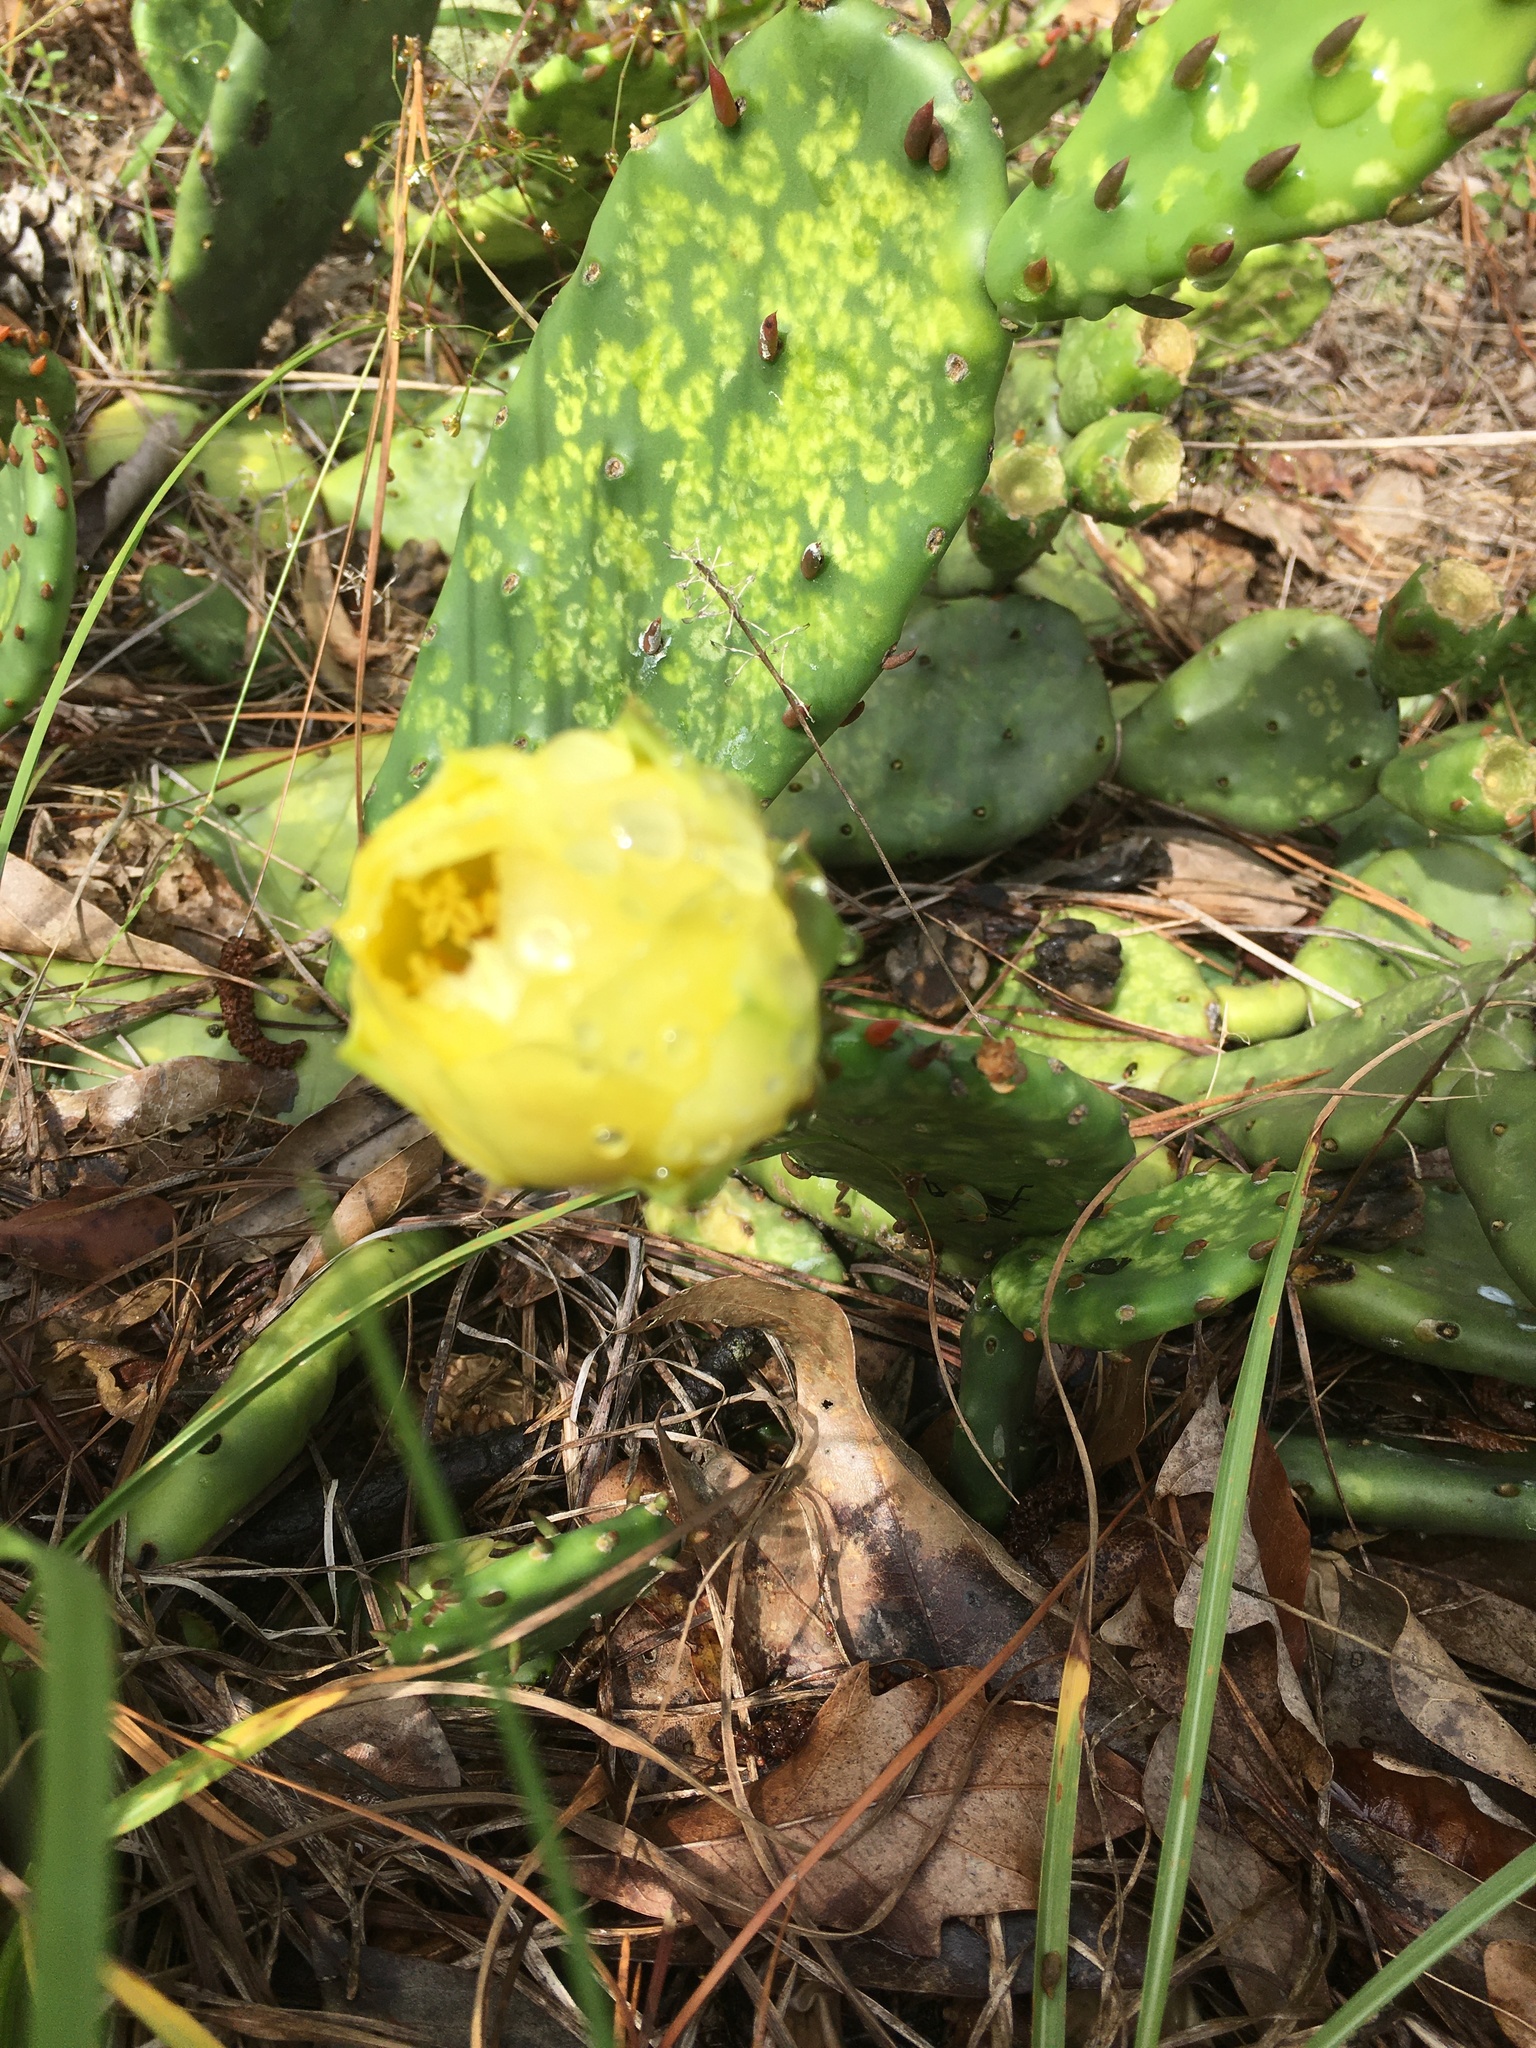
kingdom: Plantae
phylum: Tracheophyta
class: Magnoliopsida
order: Caryophyllales
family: Cactaceae
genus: Opuntia
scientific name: Opuntia mesacantha
